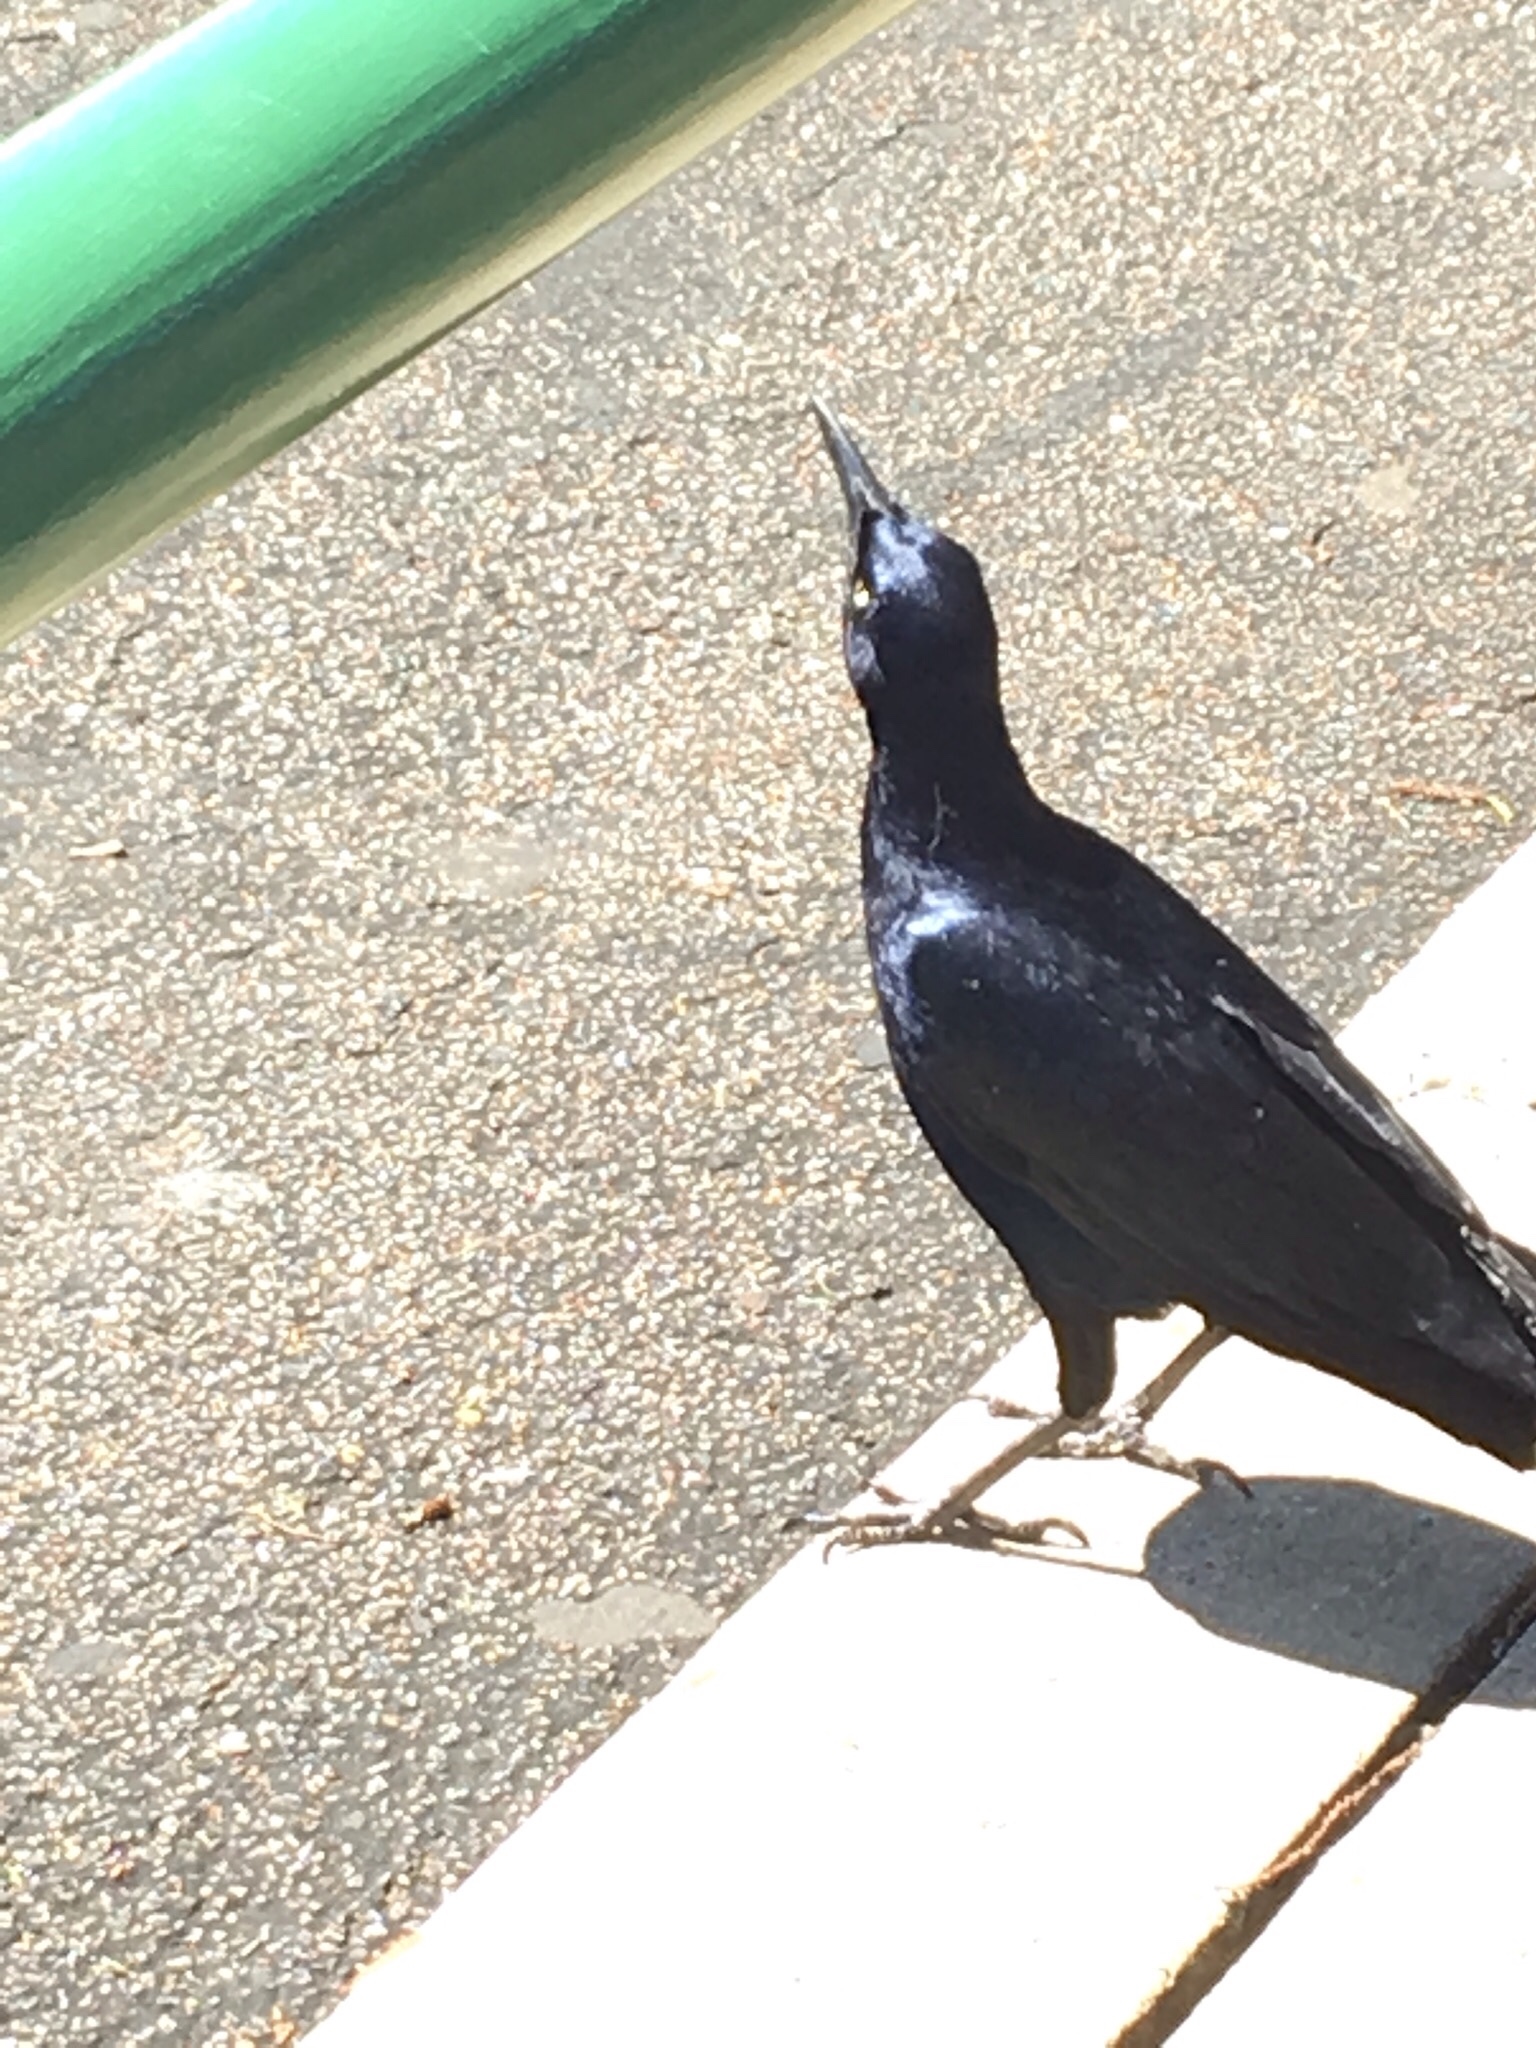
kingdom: Animalia
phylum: Chordata
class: Aves
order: Passeriformes
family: Icteridae
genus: Quiscalus
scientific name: Quiscalus mexicanus
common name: Great-tailed grackle
